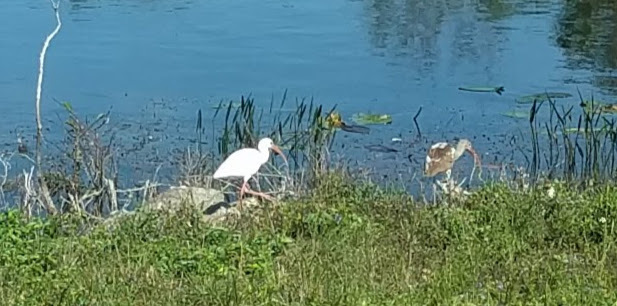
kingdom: Animalia
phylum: Chordata
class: Aves
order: Pelecaniformes
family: Threskiornithidae
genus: Eudocimus
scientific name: Eudocimus albus
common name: White ibis
